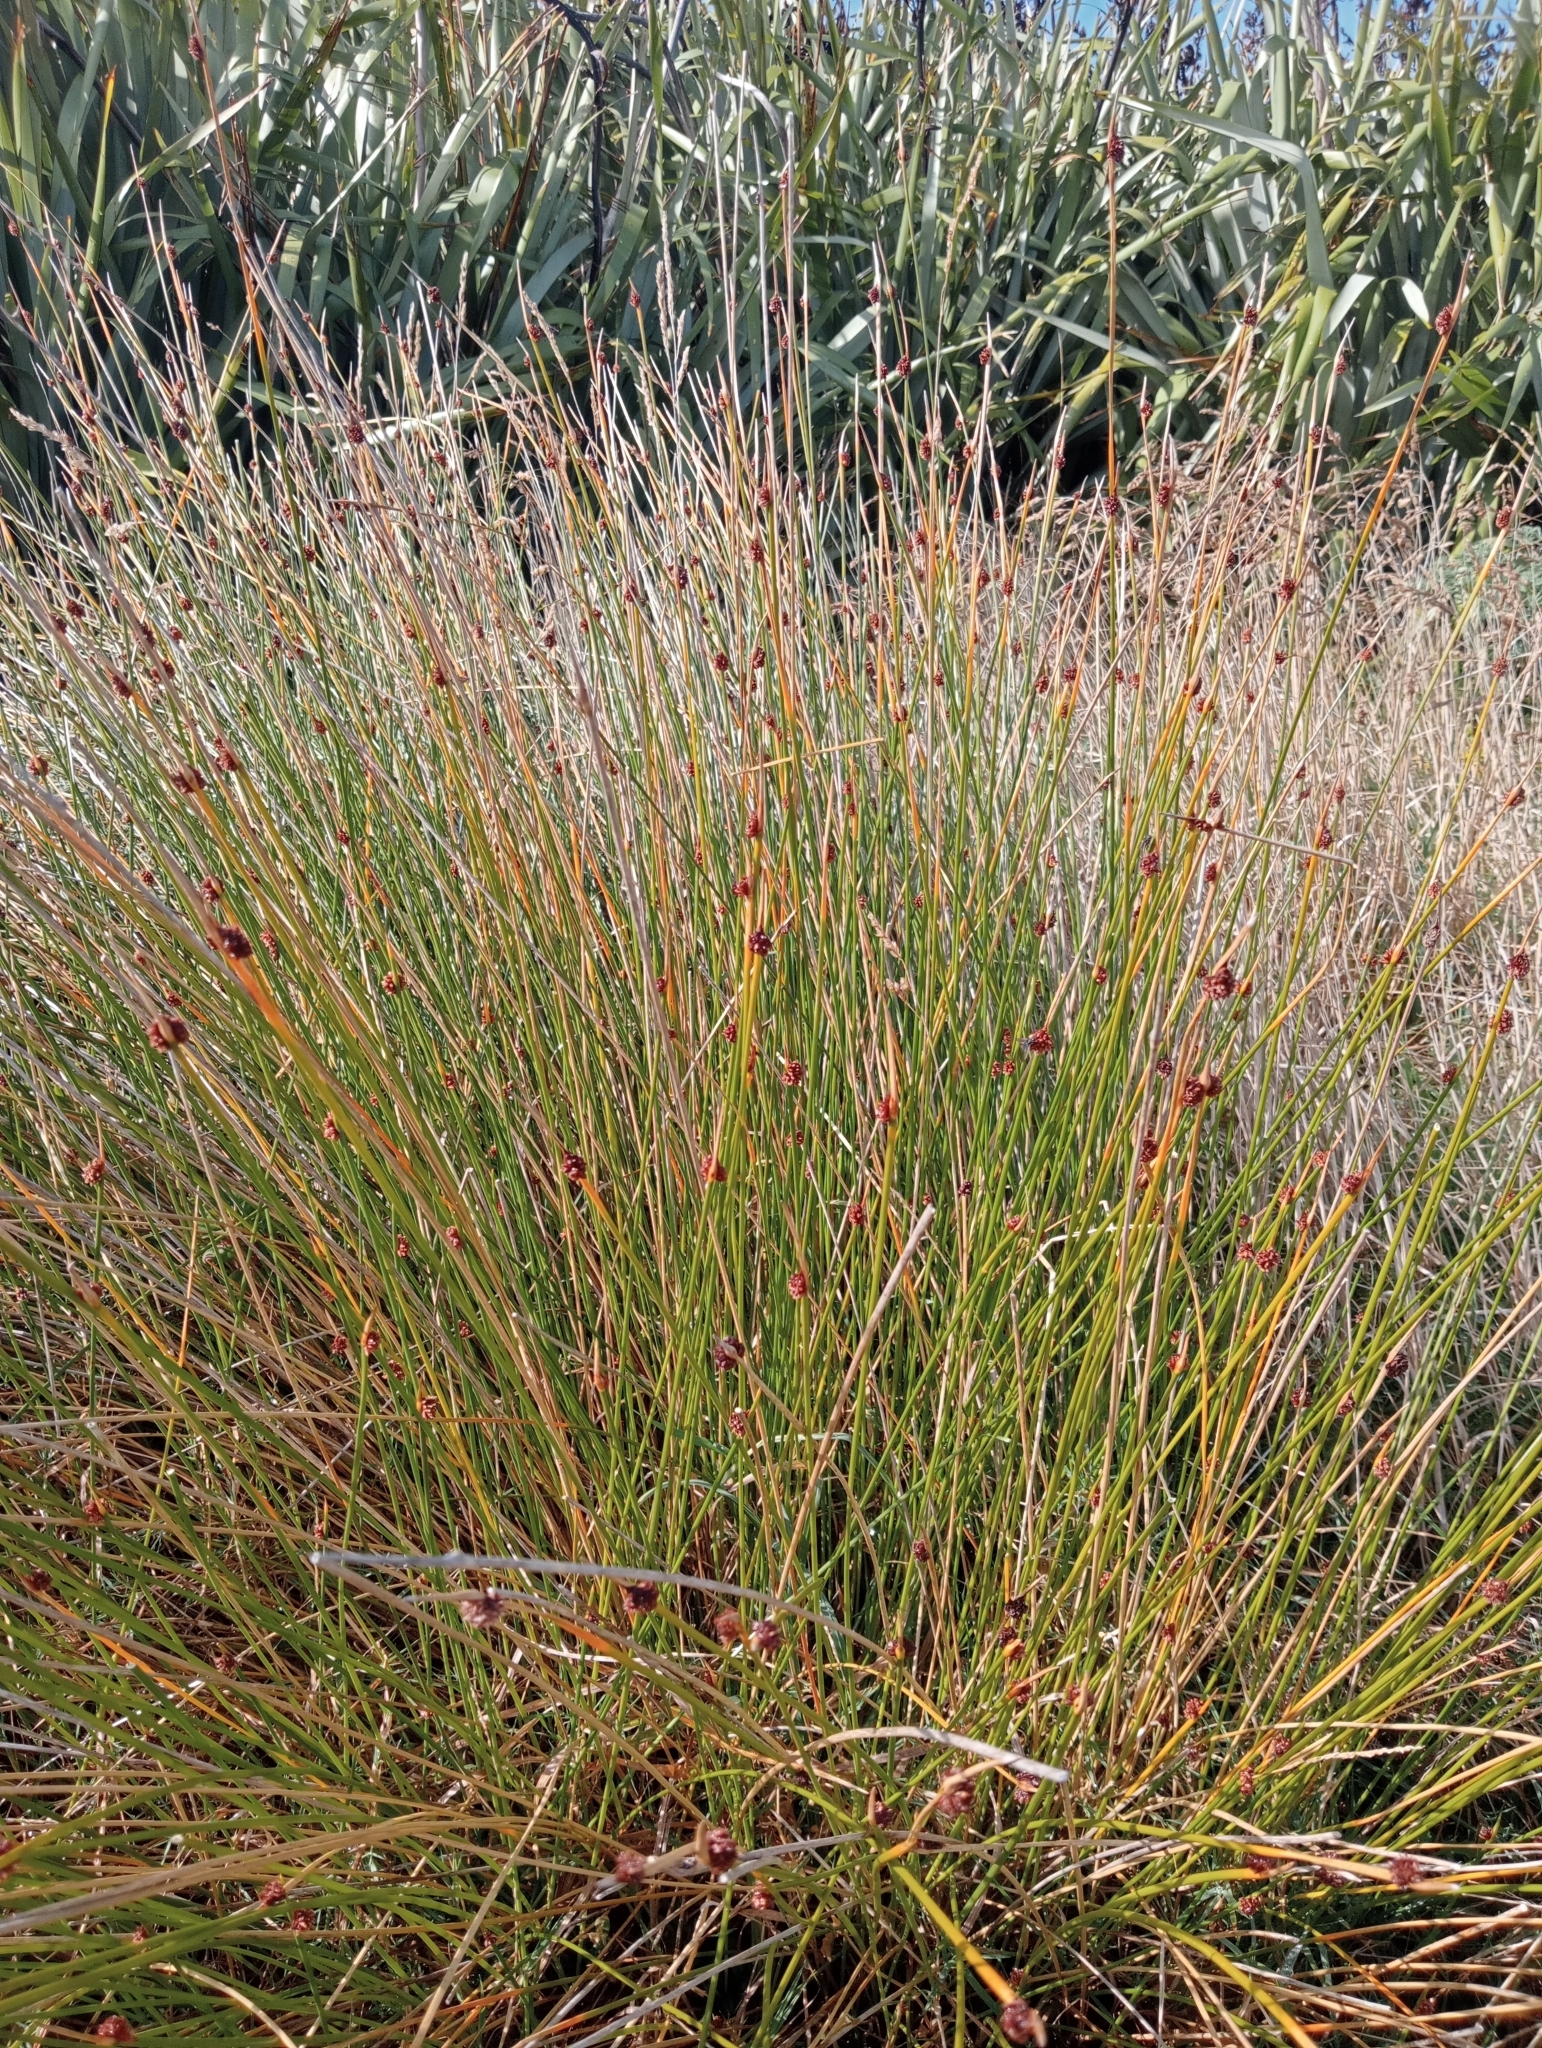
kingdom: Plantae
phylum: Tracheophyta
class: Liliopsida
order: Poales
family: Cyperaceae
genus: Ficinia
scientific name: Ficinia nodosa
